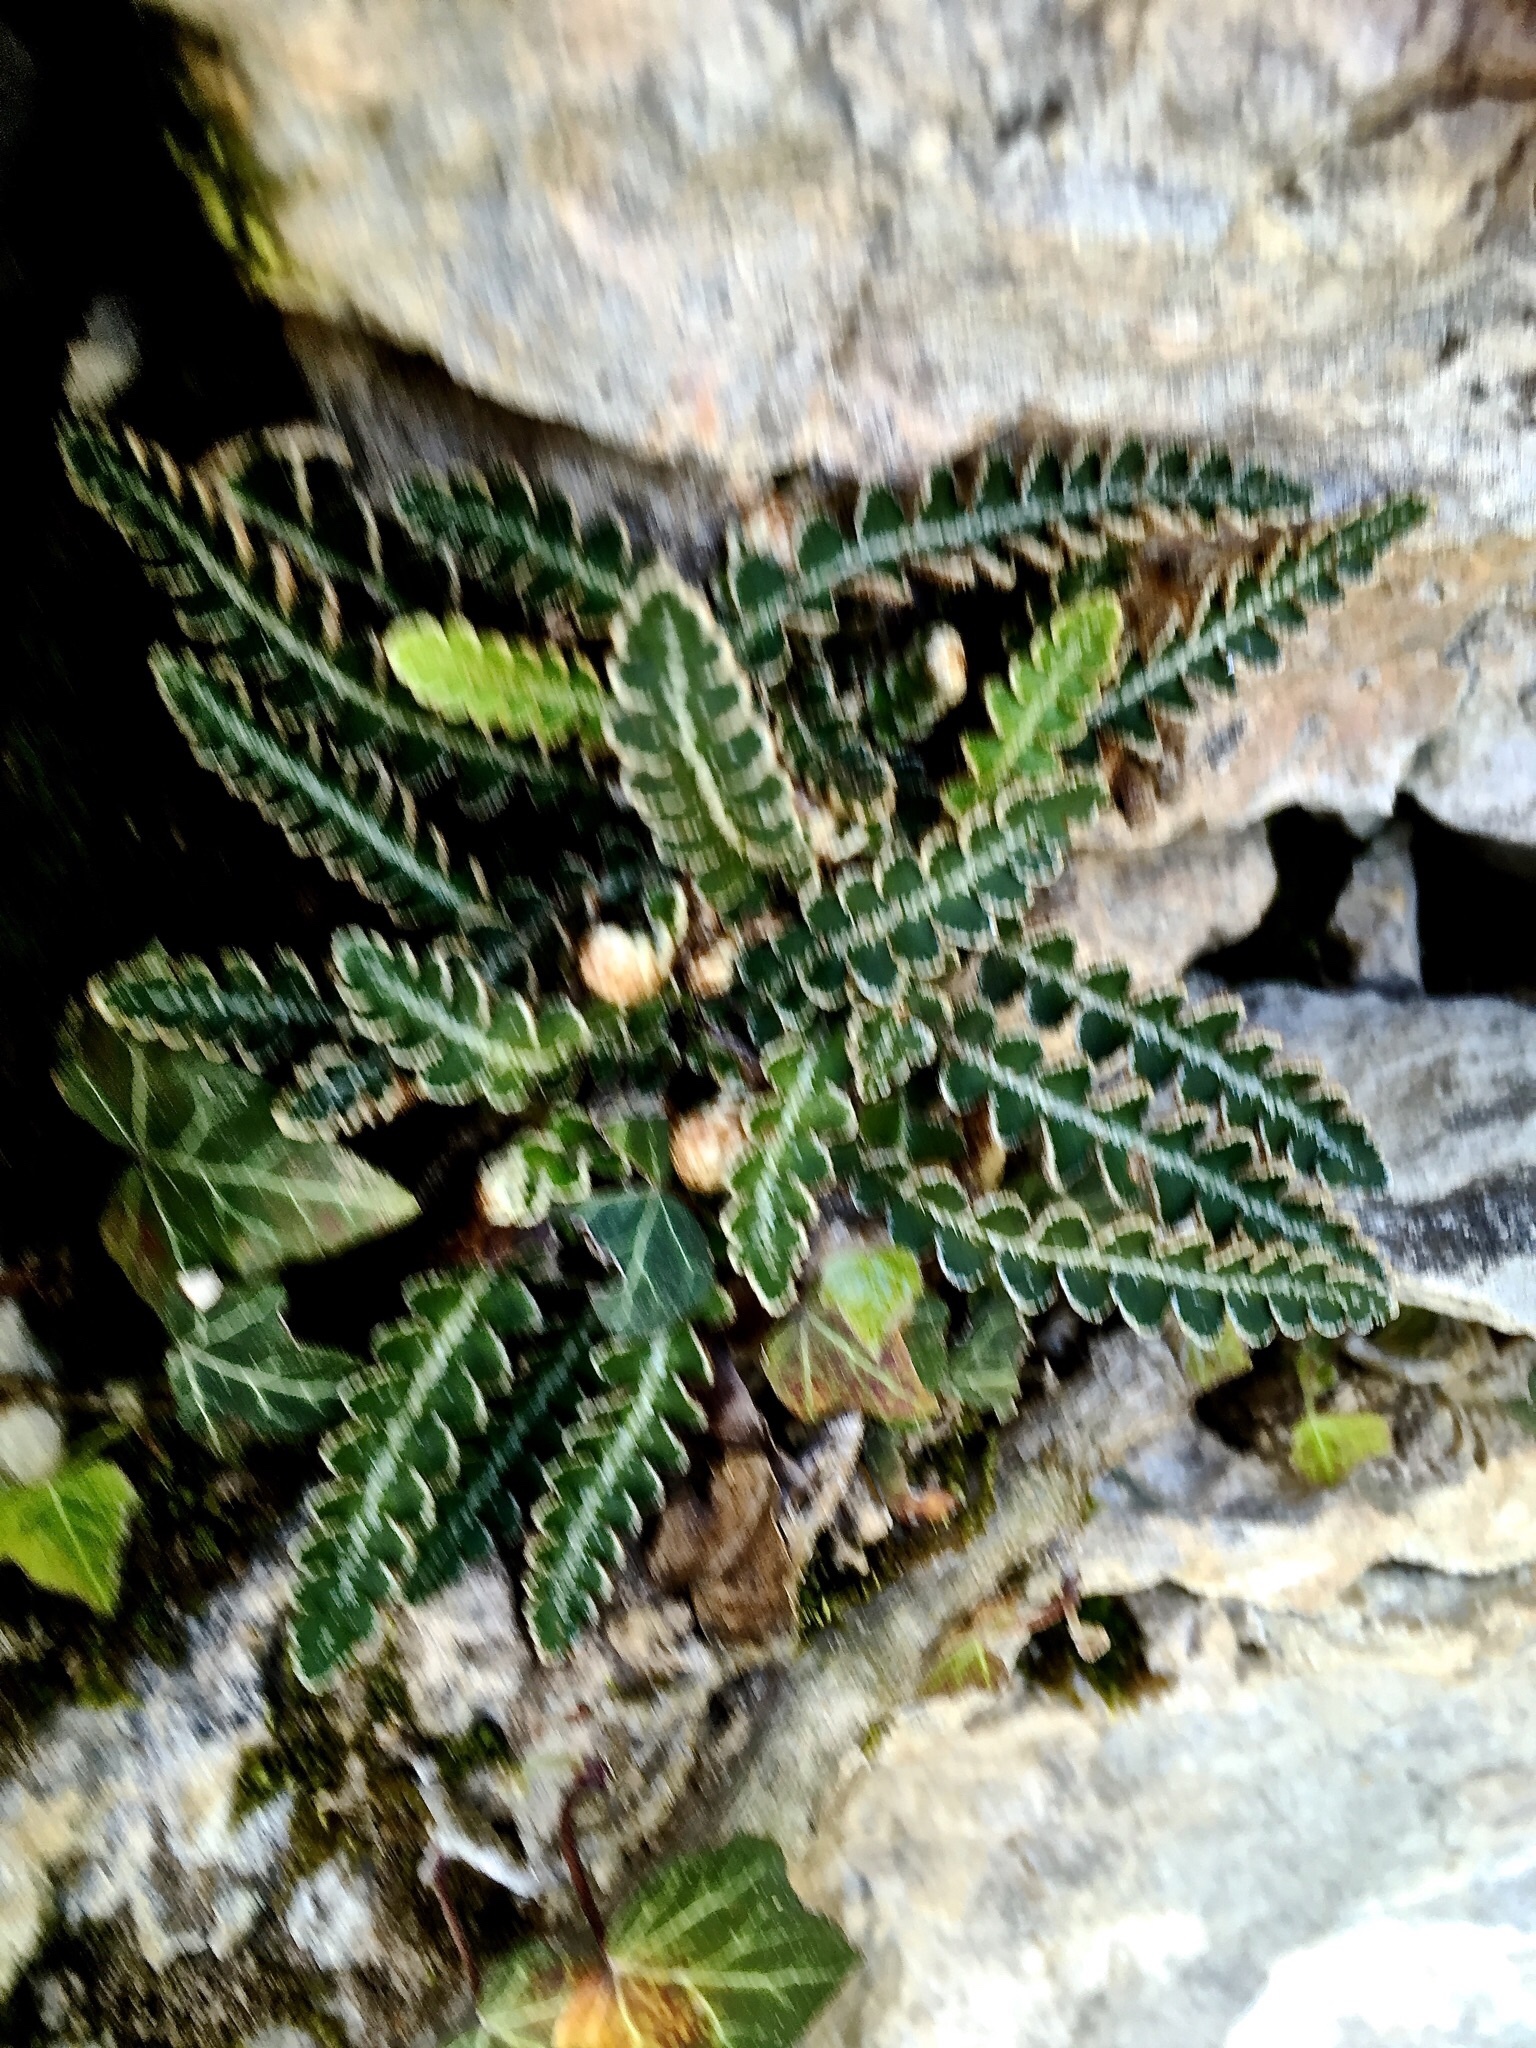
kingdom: Plantae
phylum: Tracheophyta
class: Polypodiopsida
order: Polypodiales
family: Aspleniaceae
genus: Asplenium
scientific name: Asplenium ceterach
